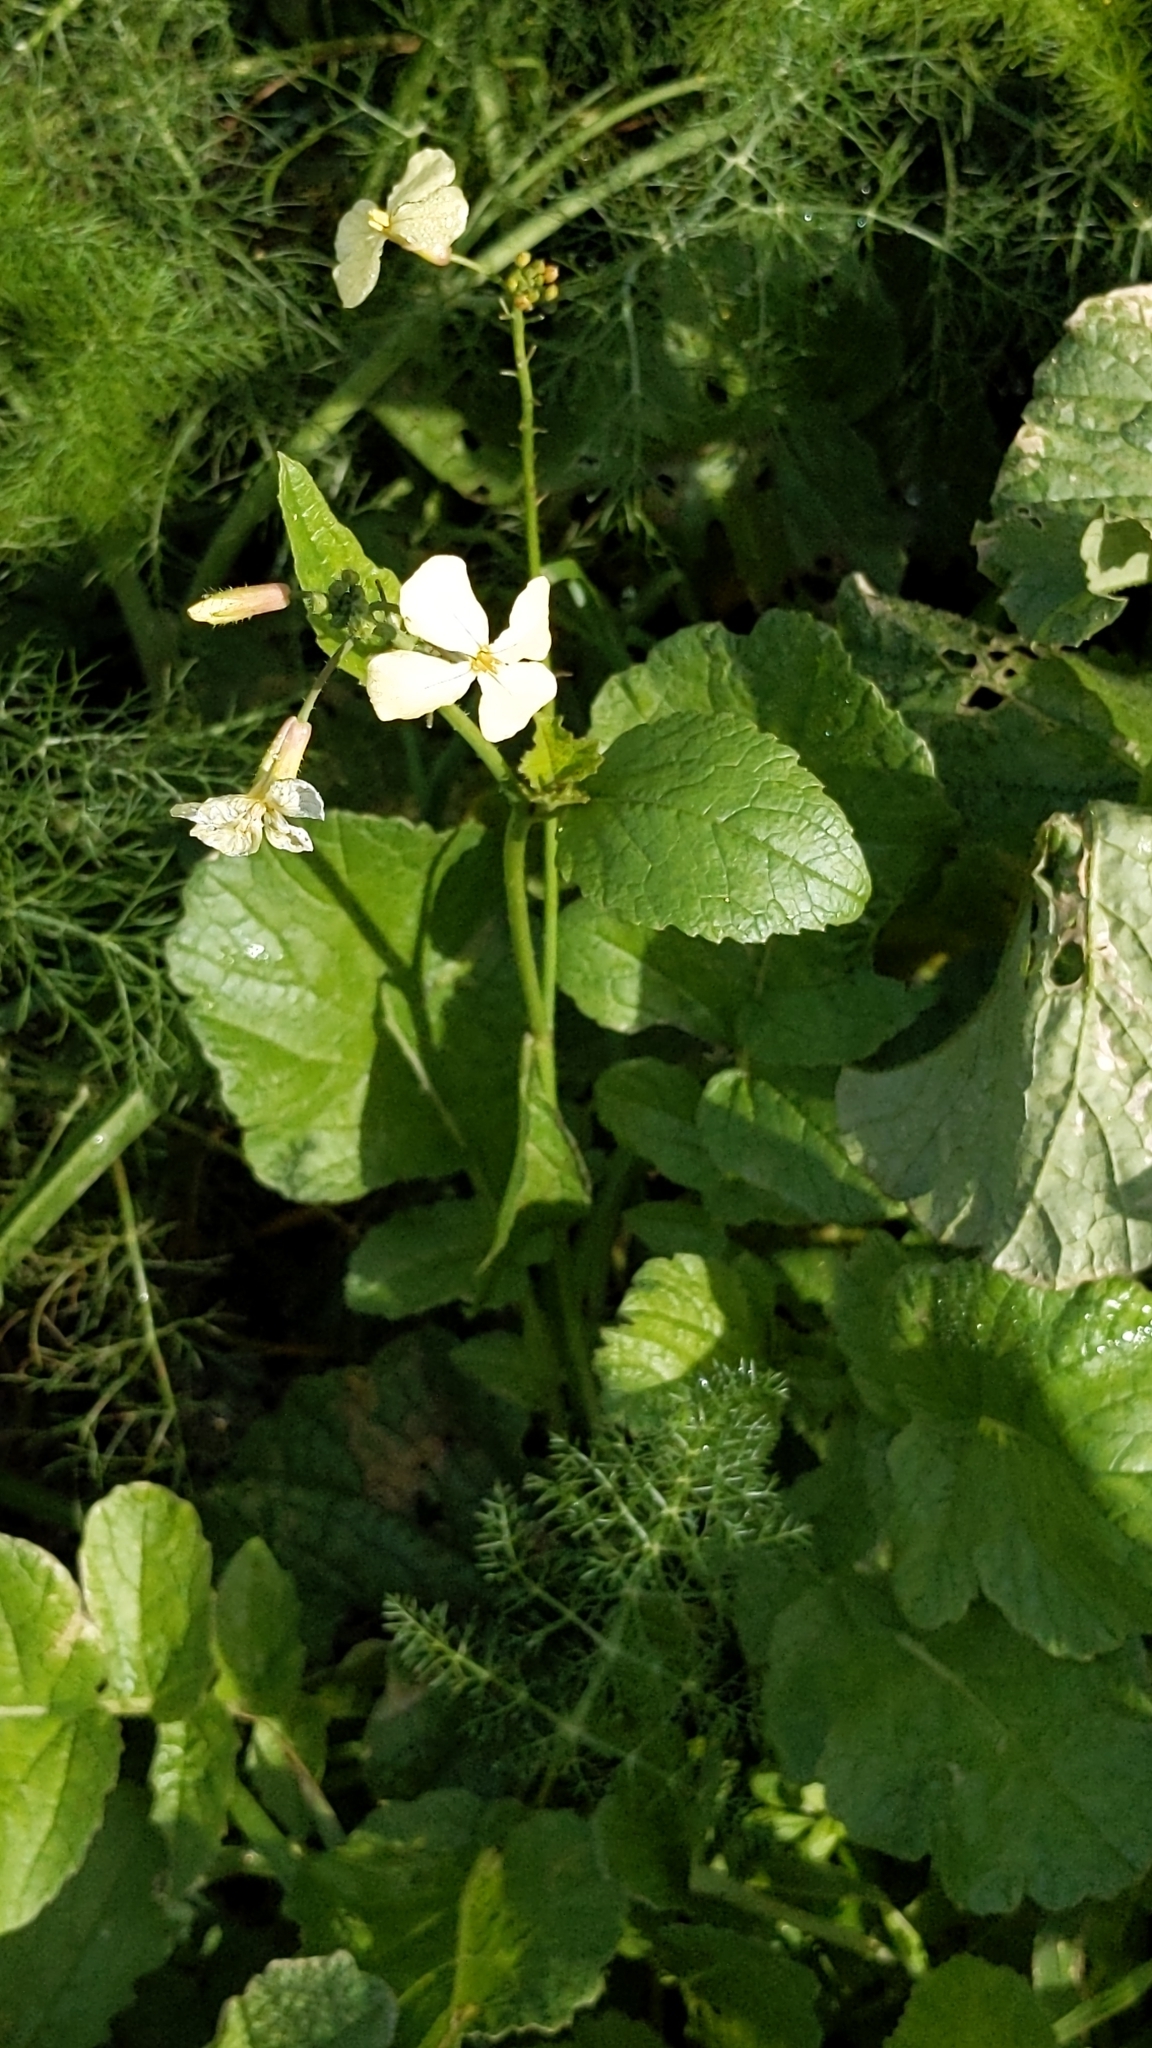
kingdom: Plantae
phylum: Tracheophyta
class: Magnoliopsida
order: Brassicales
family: Brassicaceae
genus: Raphanus
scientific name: Raphanus raphanistrum
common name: Wild radish
